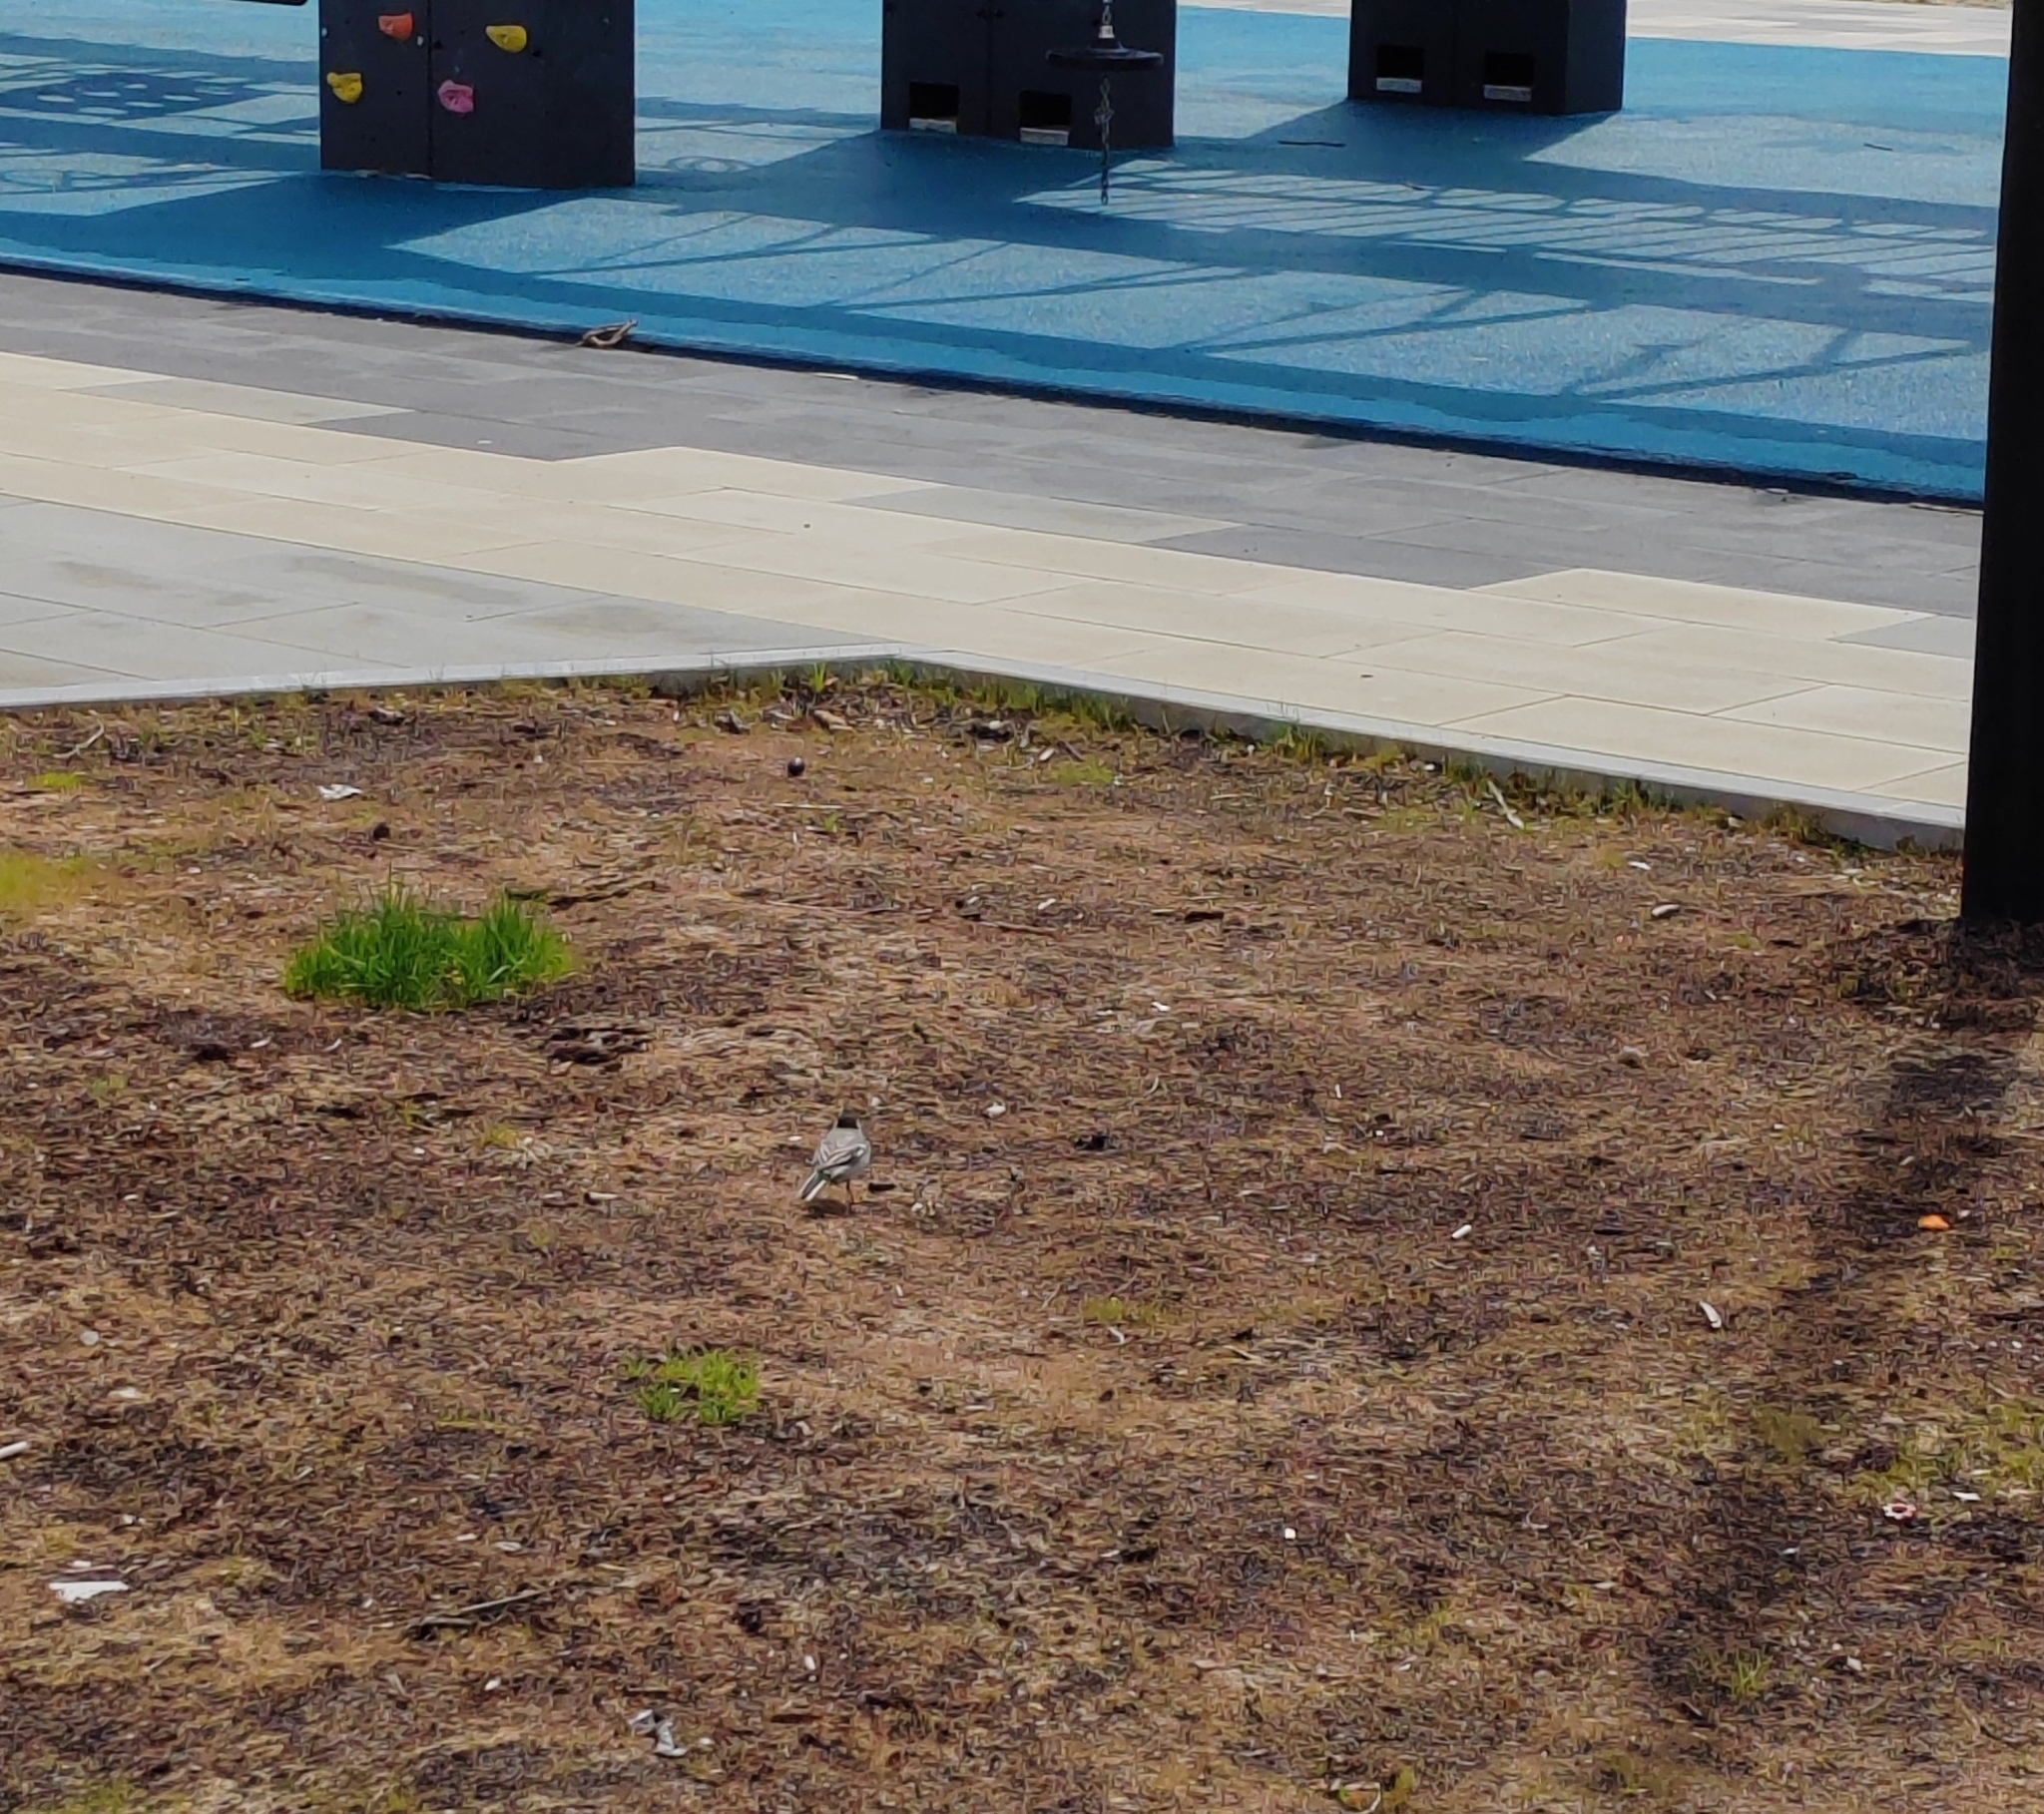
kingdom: Animalia
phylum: Chordata
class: Aves
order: Passeriformes
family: Motacillidae
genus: Motacilla
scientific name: Motacilla alba
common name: White wagtail
